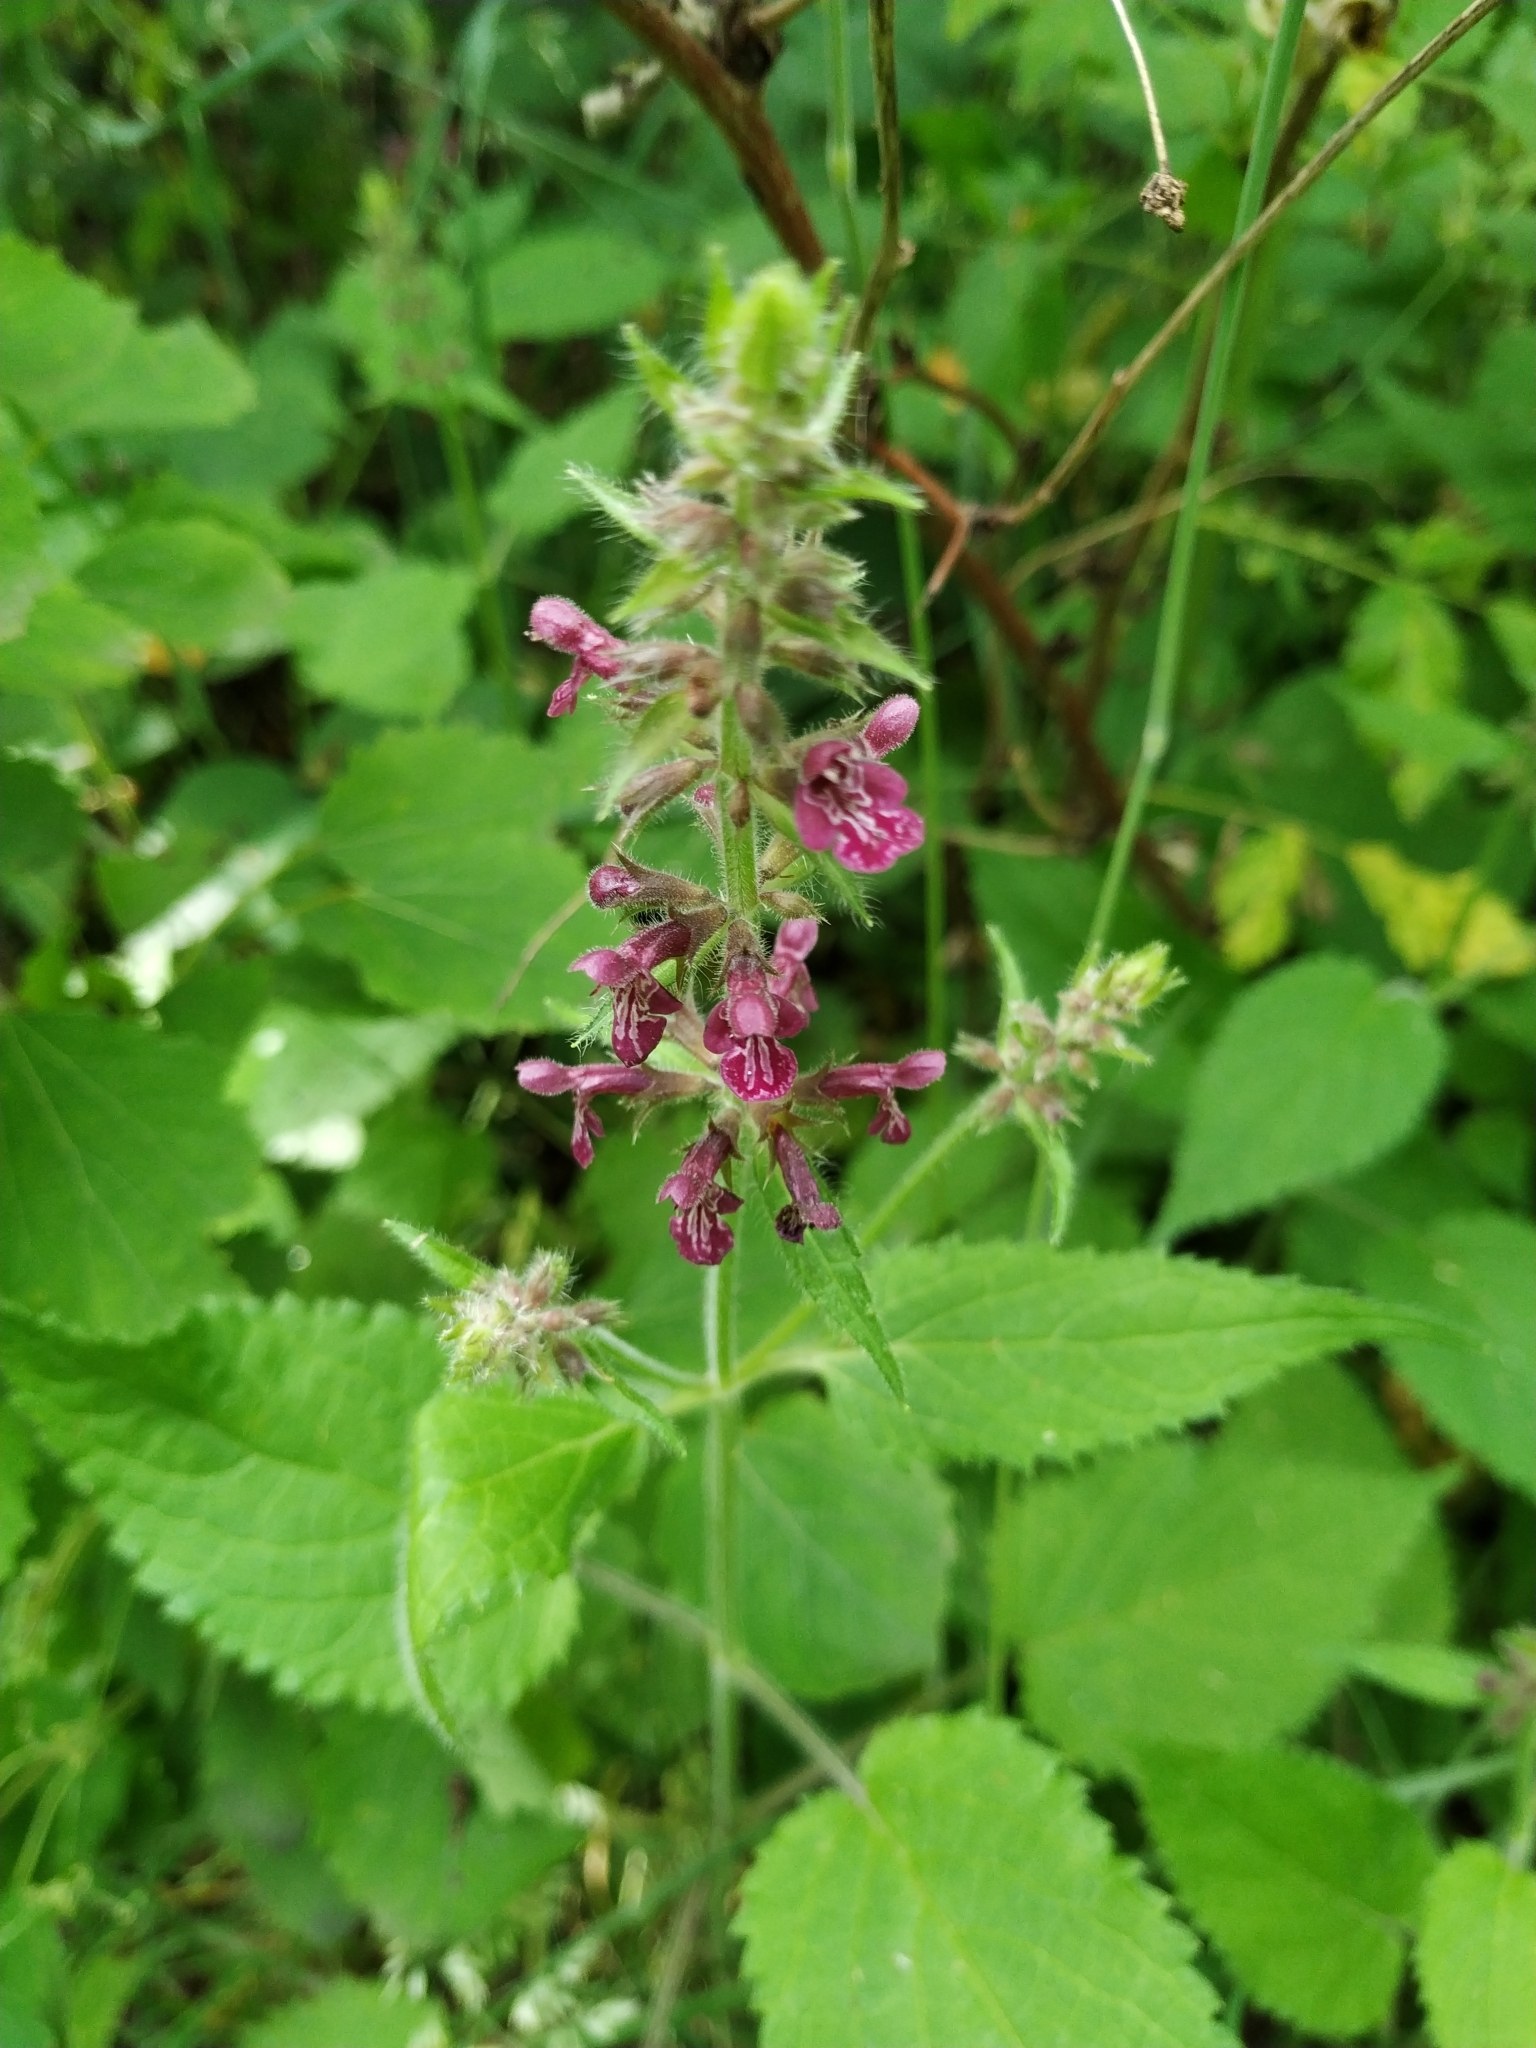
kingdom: Plantae
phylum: Tracheophyta
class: Magnoliopsida
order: Lamiales
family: Lamiaceae
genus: Stachys
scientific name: Stachys sylvatica
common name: Hedge woundwort
